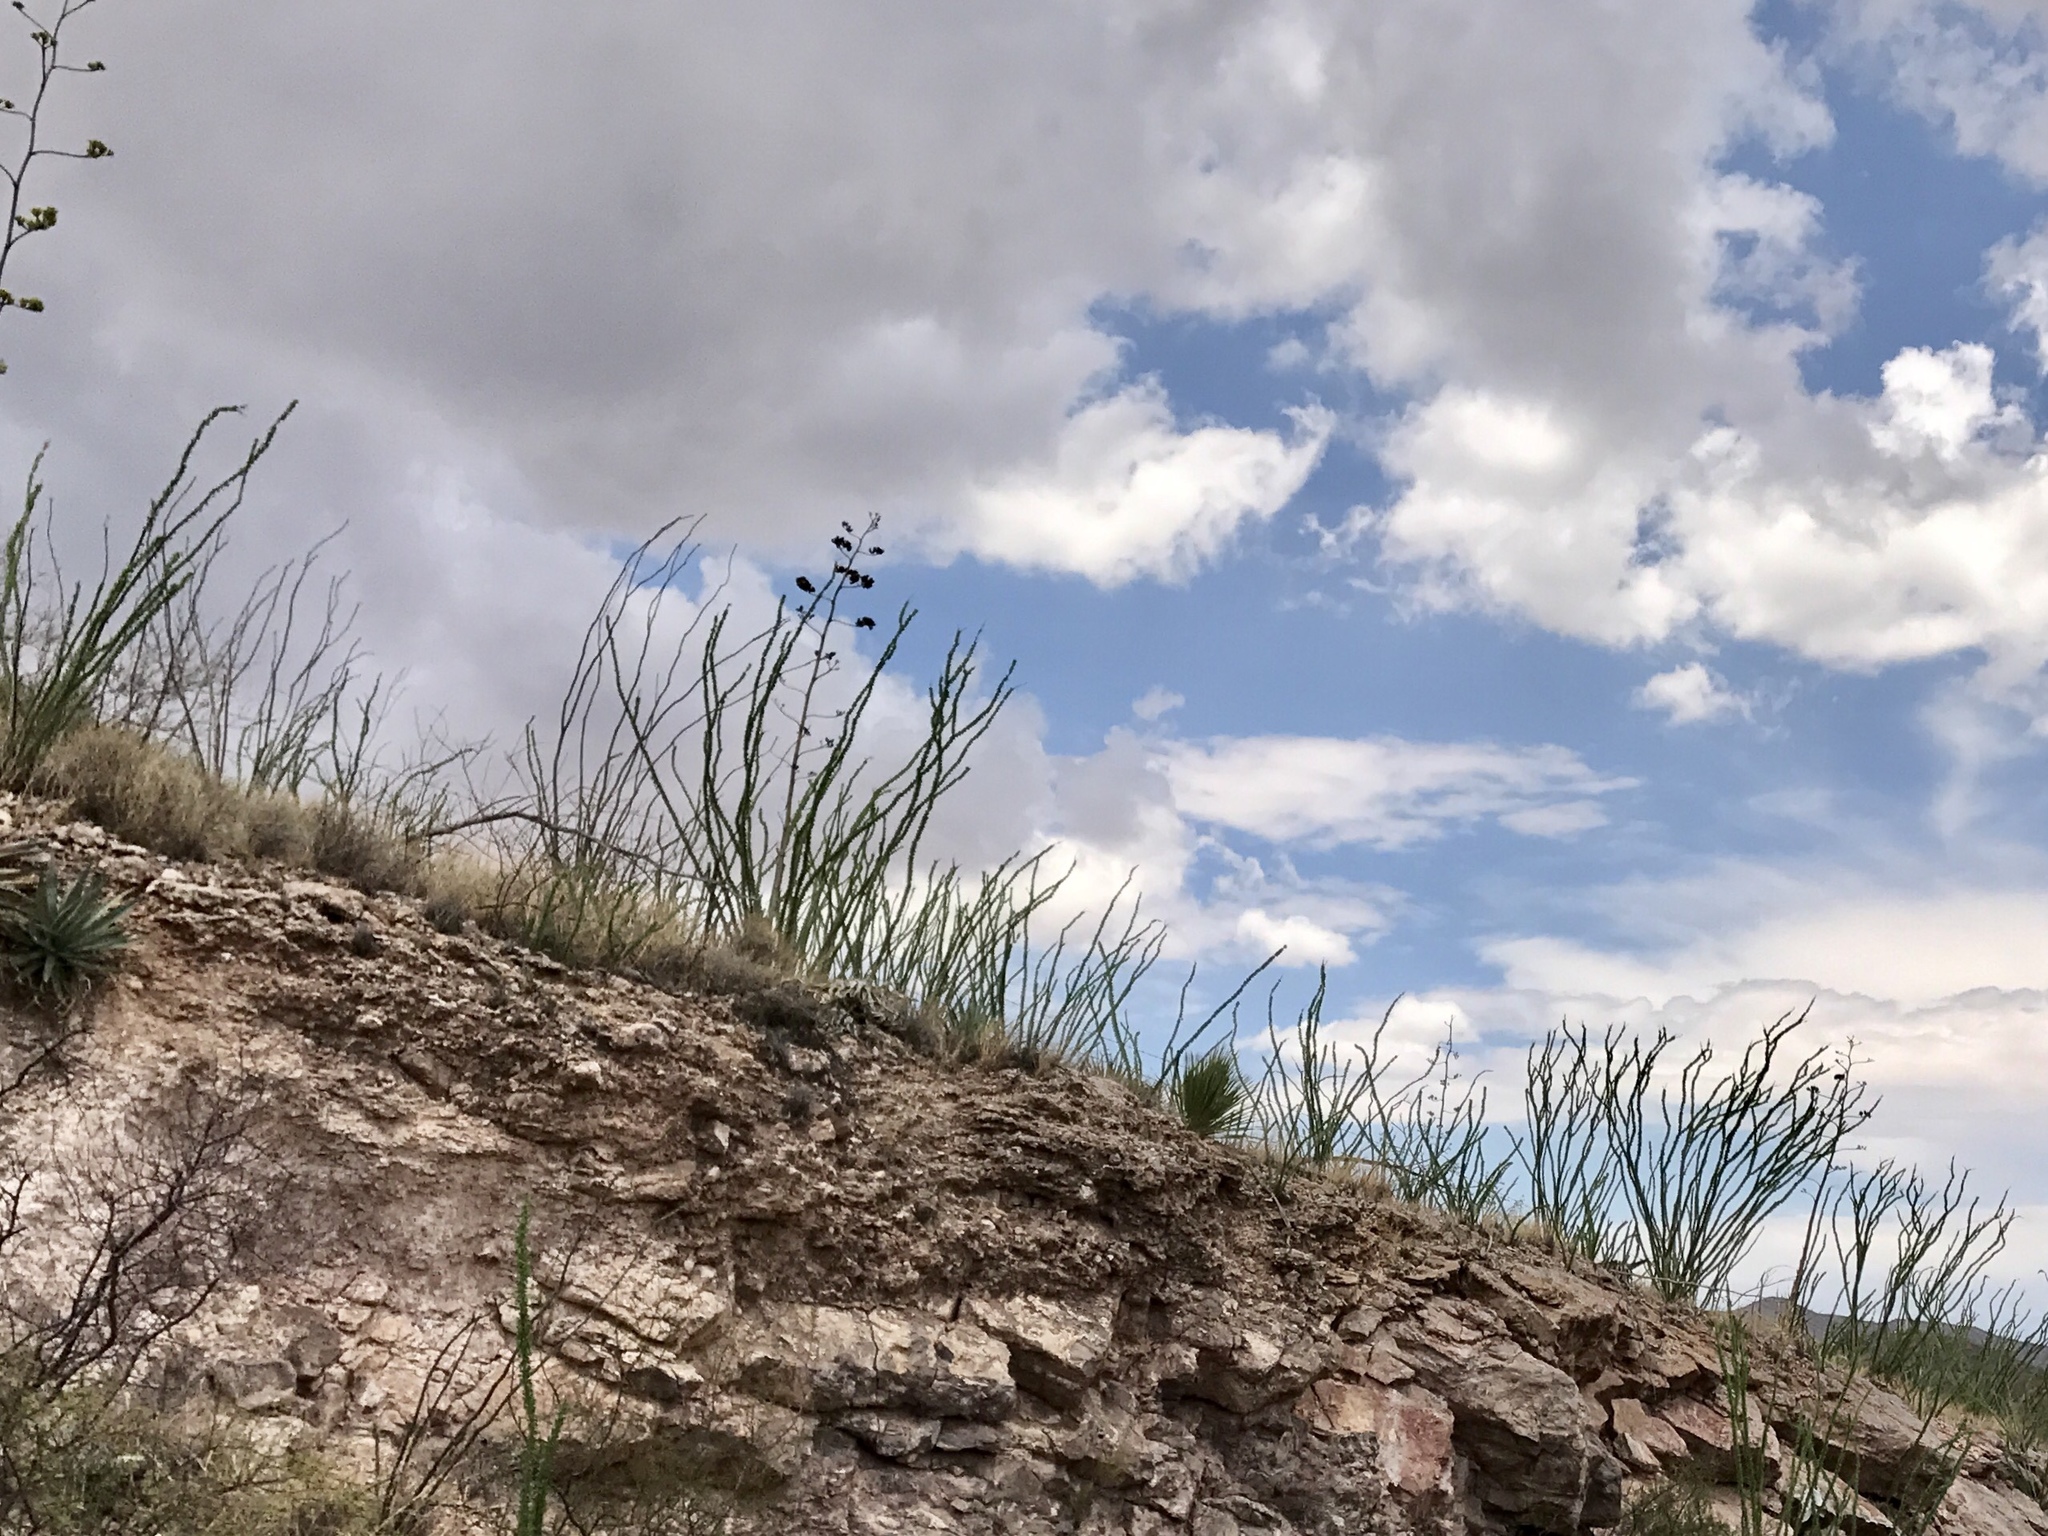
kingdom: Plantae
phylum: Tracheophyta
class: Magnoliopsida
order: Ericales
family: Fouquieriaceae
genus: Fouquieria
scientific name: Fouquieria splendens
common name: Vine-cactus
